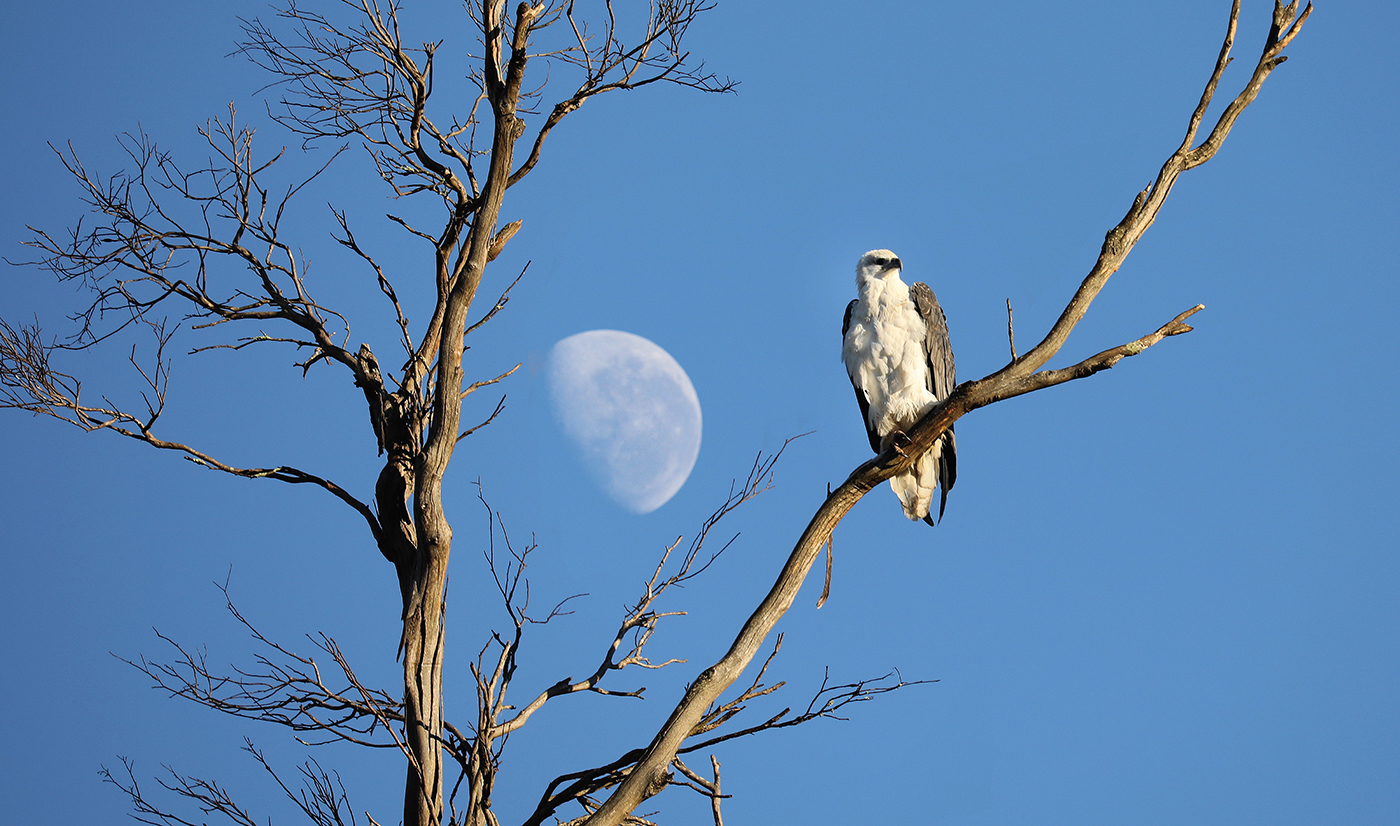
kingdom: Animalia
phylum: Chordata
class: Aves
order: Accipitriformes
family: Accipitridae
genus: Haliaeetus
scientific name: Haliaeetus leucogaster
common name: White-bellied sea eagle
